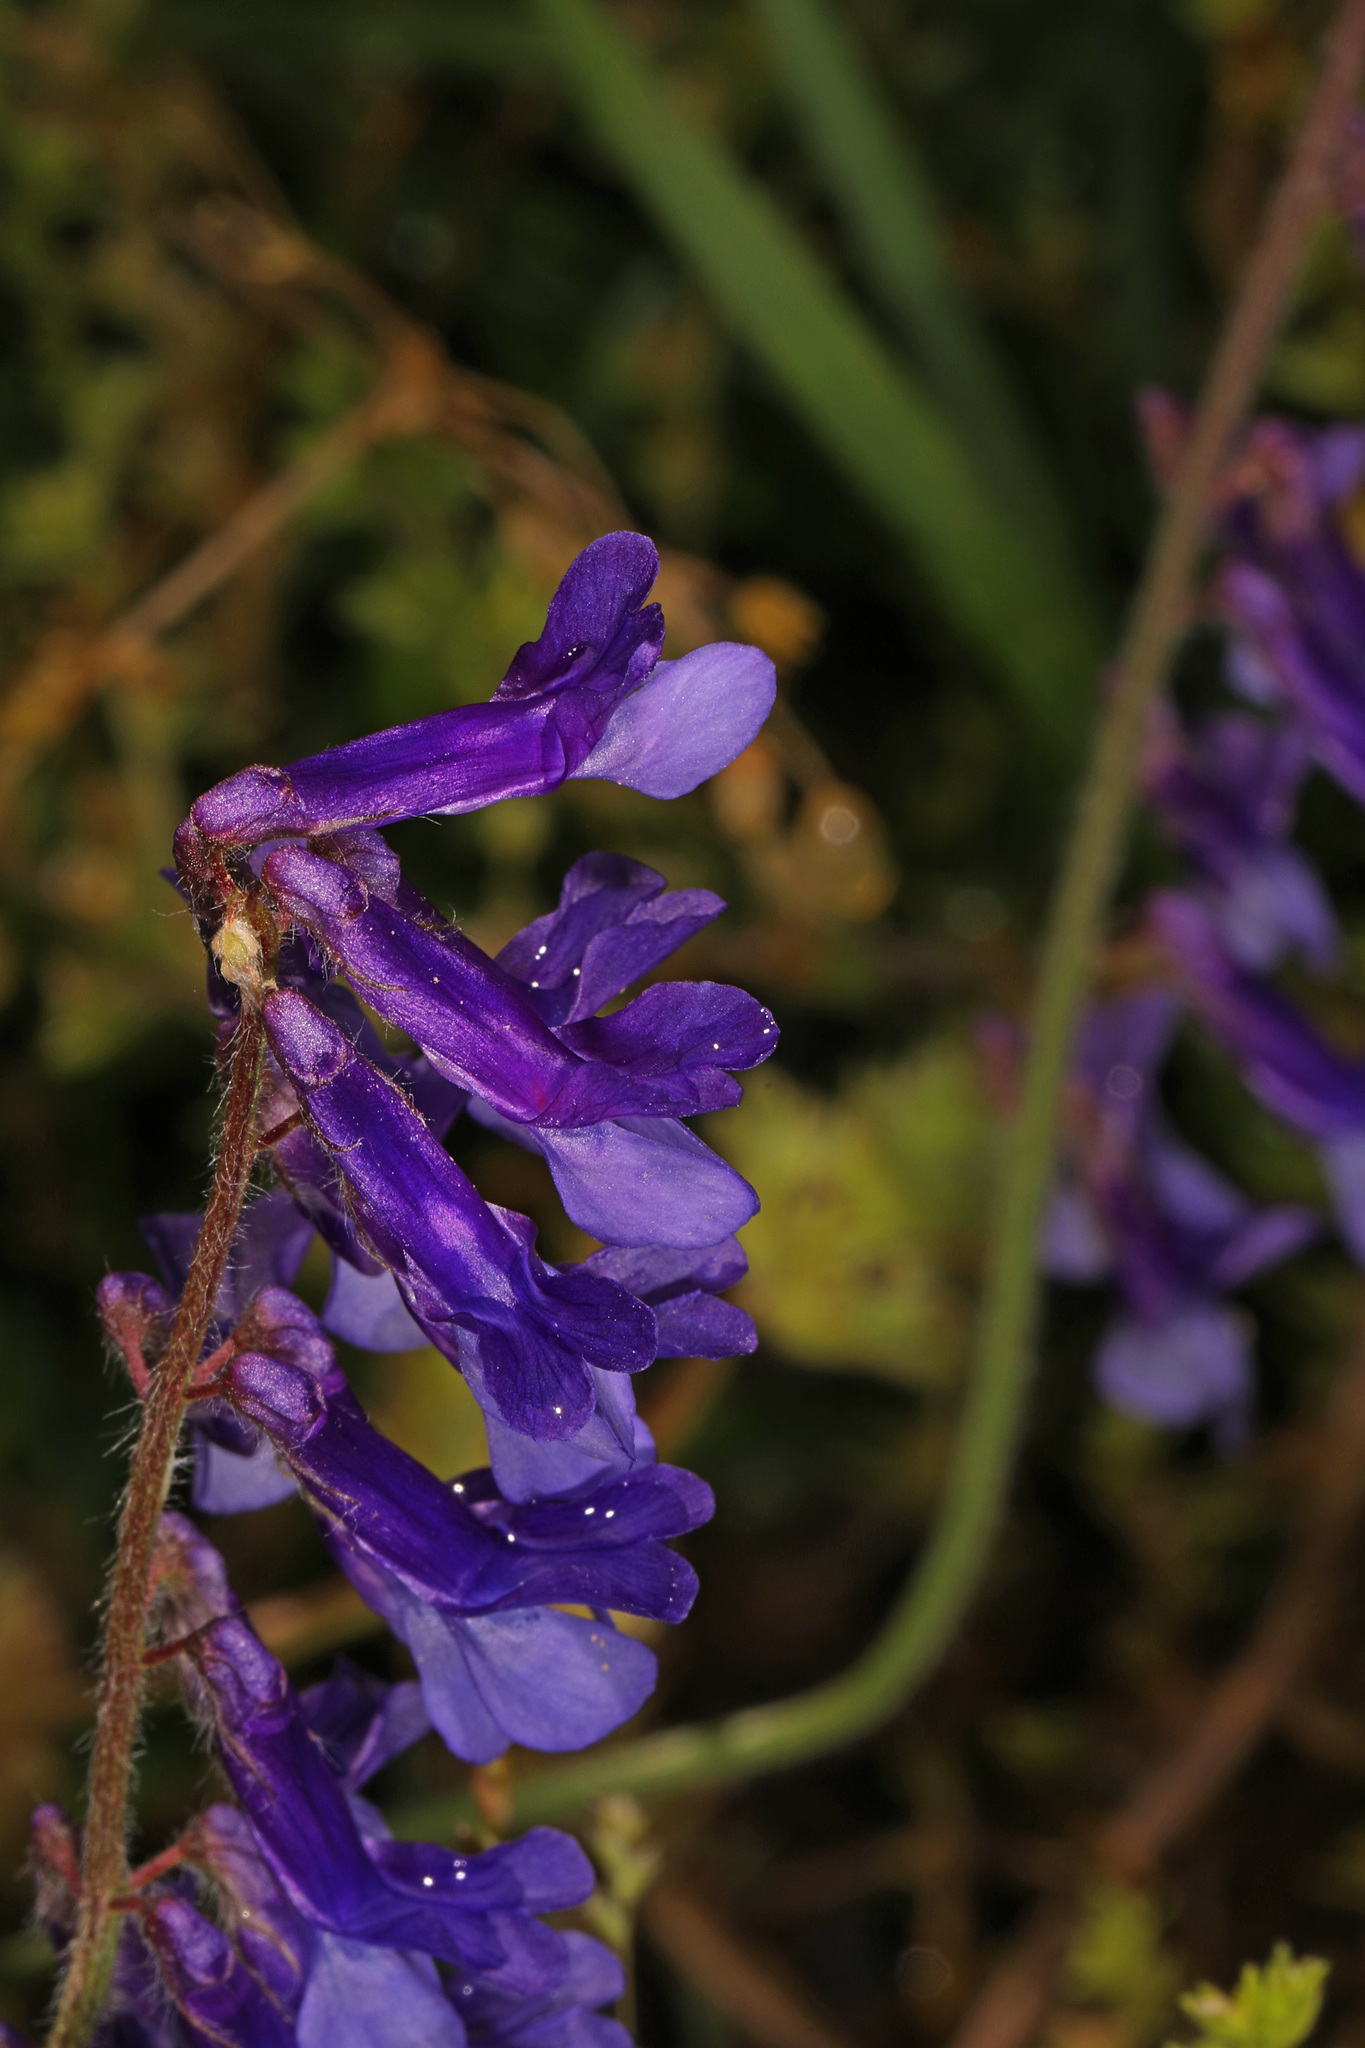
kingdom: Plantae
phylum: Tracheophyta
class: Magnoliopsida
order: Fabales
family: Fabaceae
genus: Vicia
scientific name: Vicia villosa
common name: Fodder vetch
